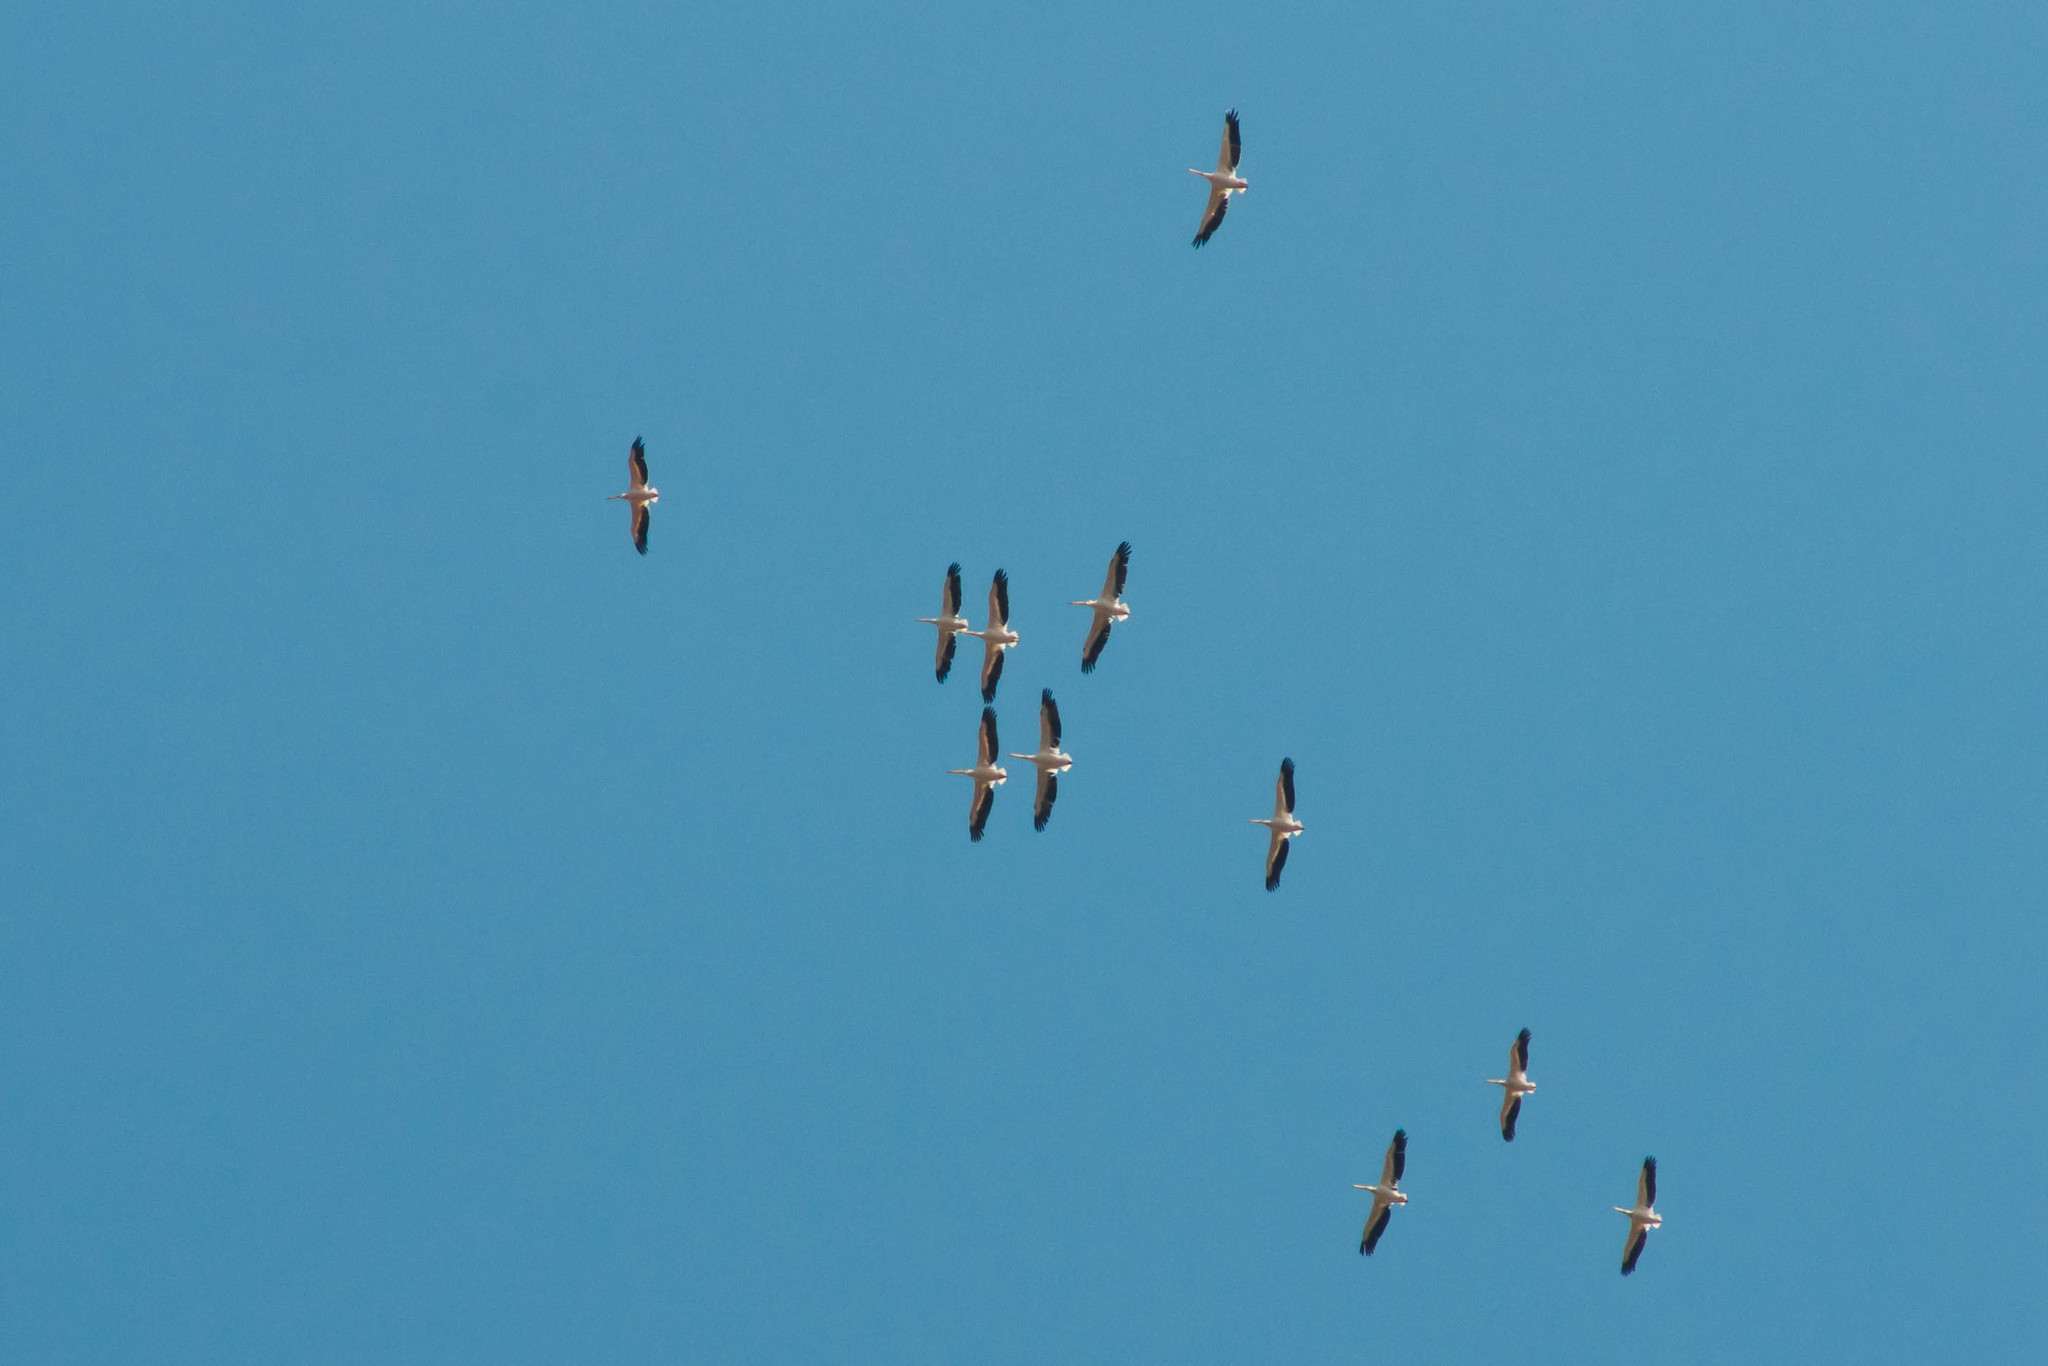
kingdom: Animalia
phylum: Chordata
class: Aves
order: Pelecaniformes
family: Pelecanidae
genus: Pelecanus
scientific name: Pelecanus onocrotalus
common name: Great white pelican
